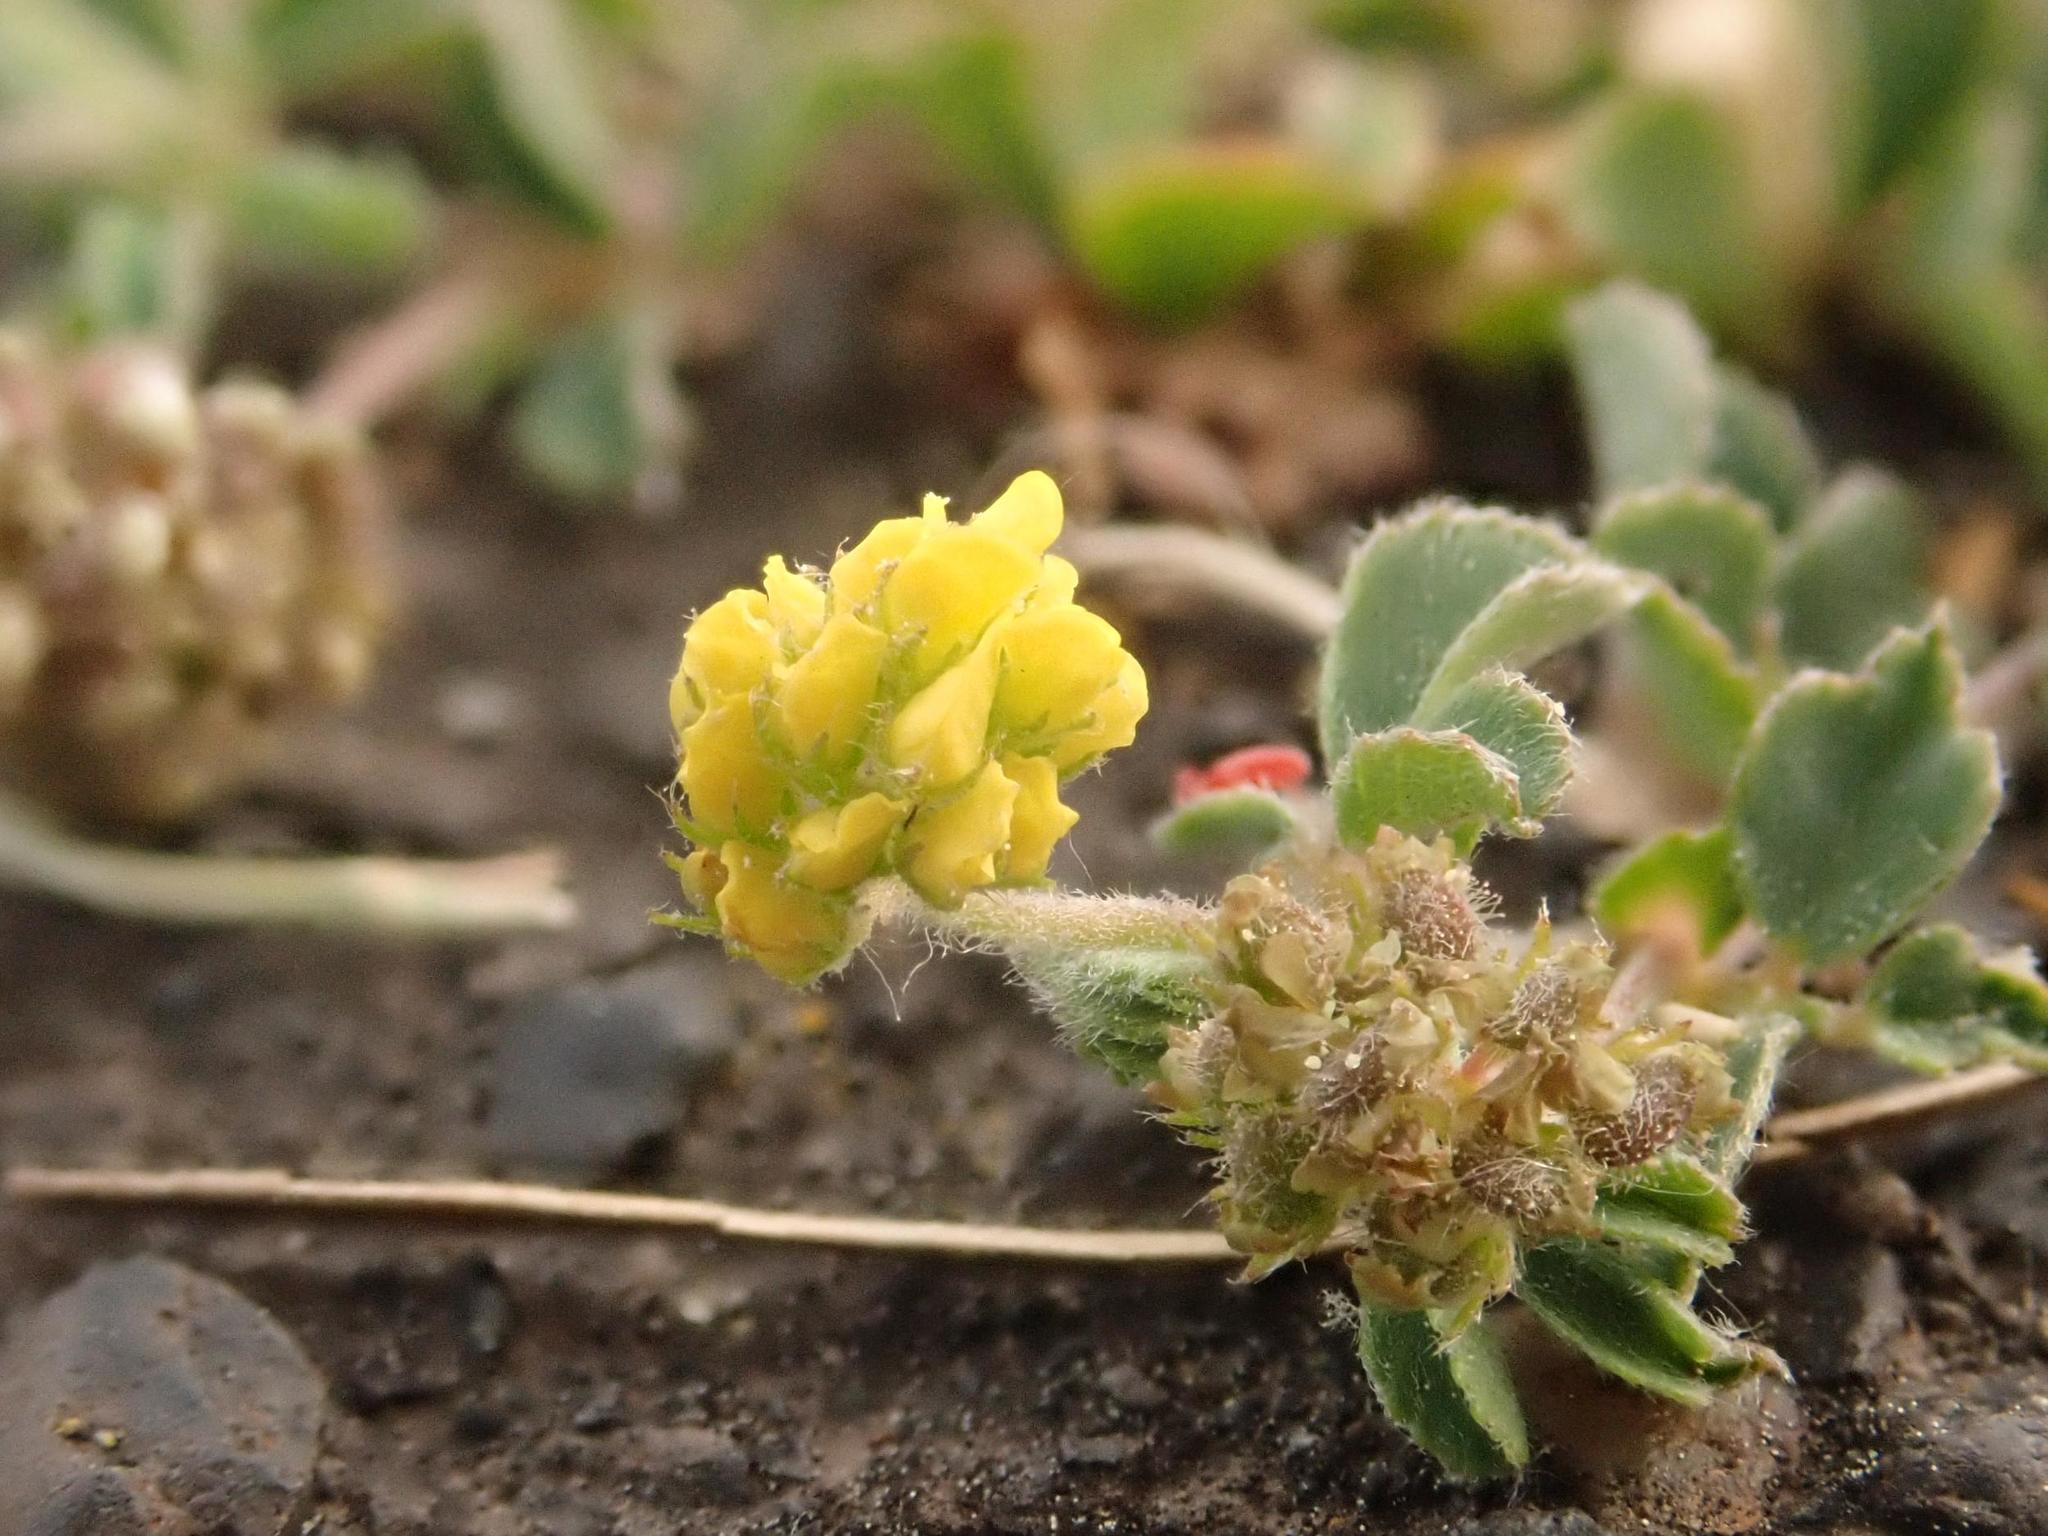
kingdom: Plantae
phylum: Tracheophyta
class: Magnoliopsida
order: Fabales
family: Fabaceae
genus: Medicago
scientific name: Medicago lupulina
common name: Black medick
